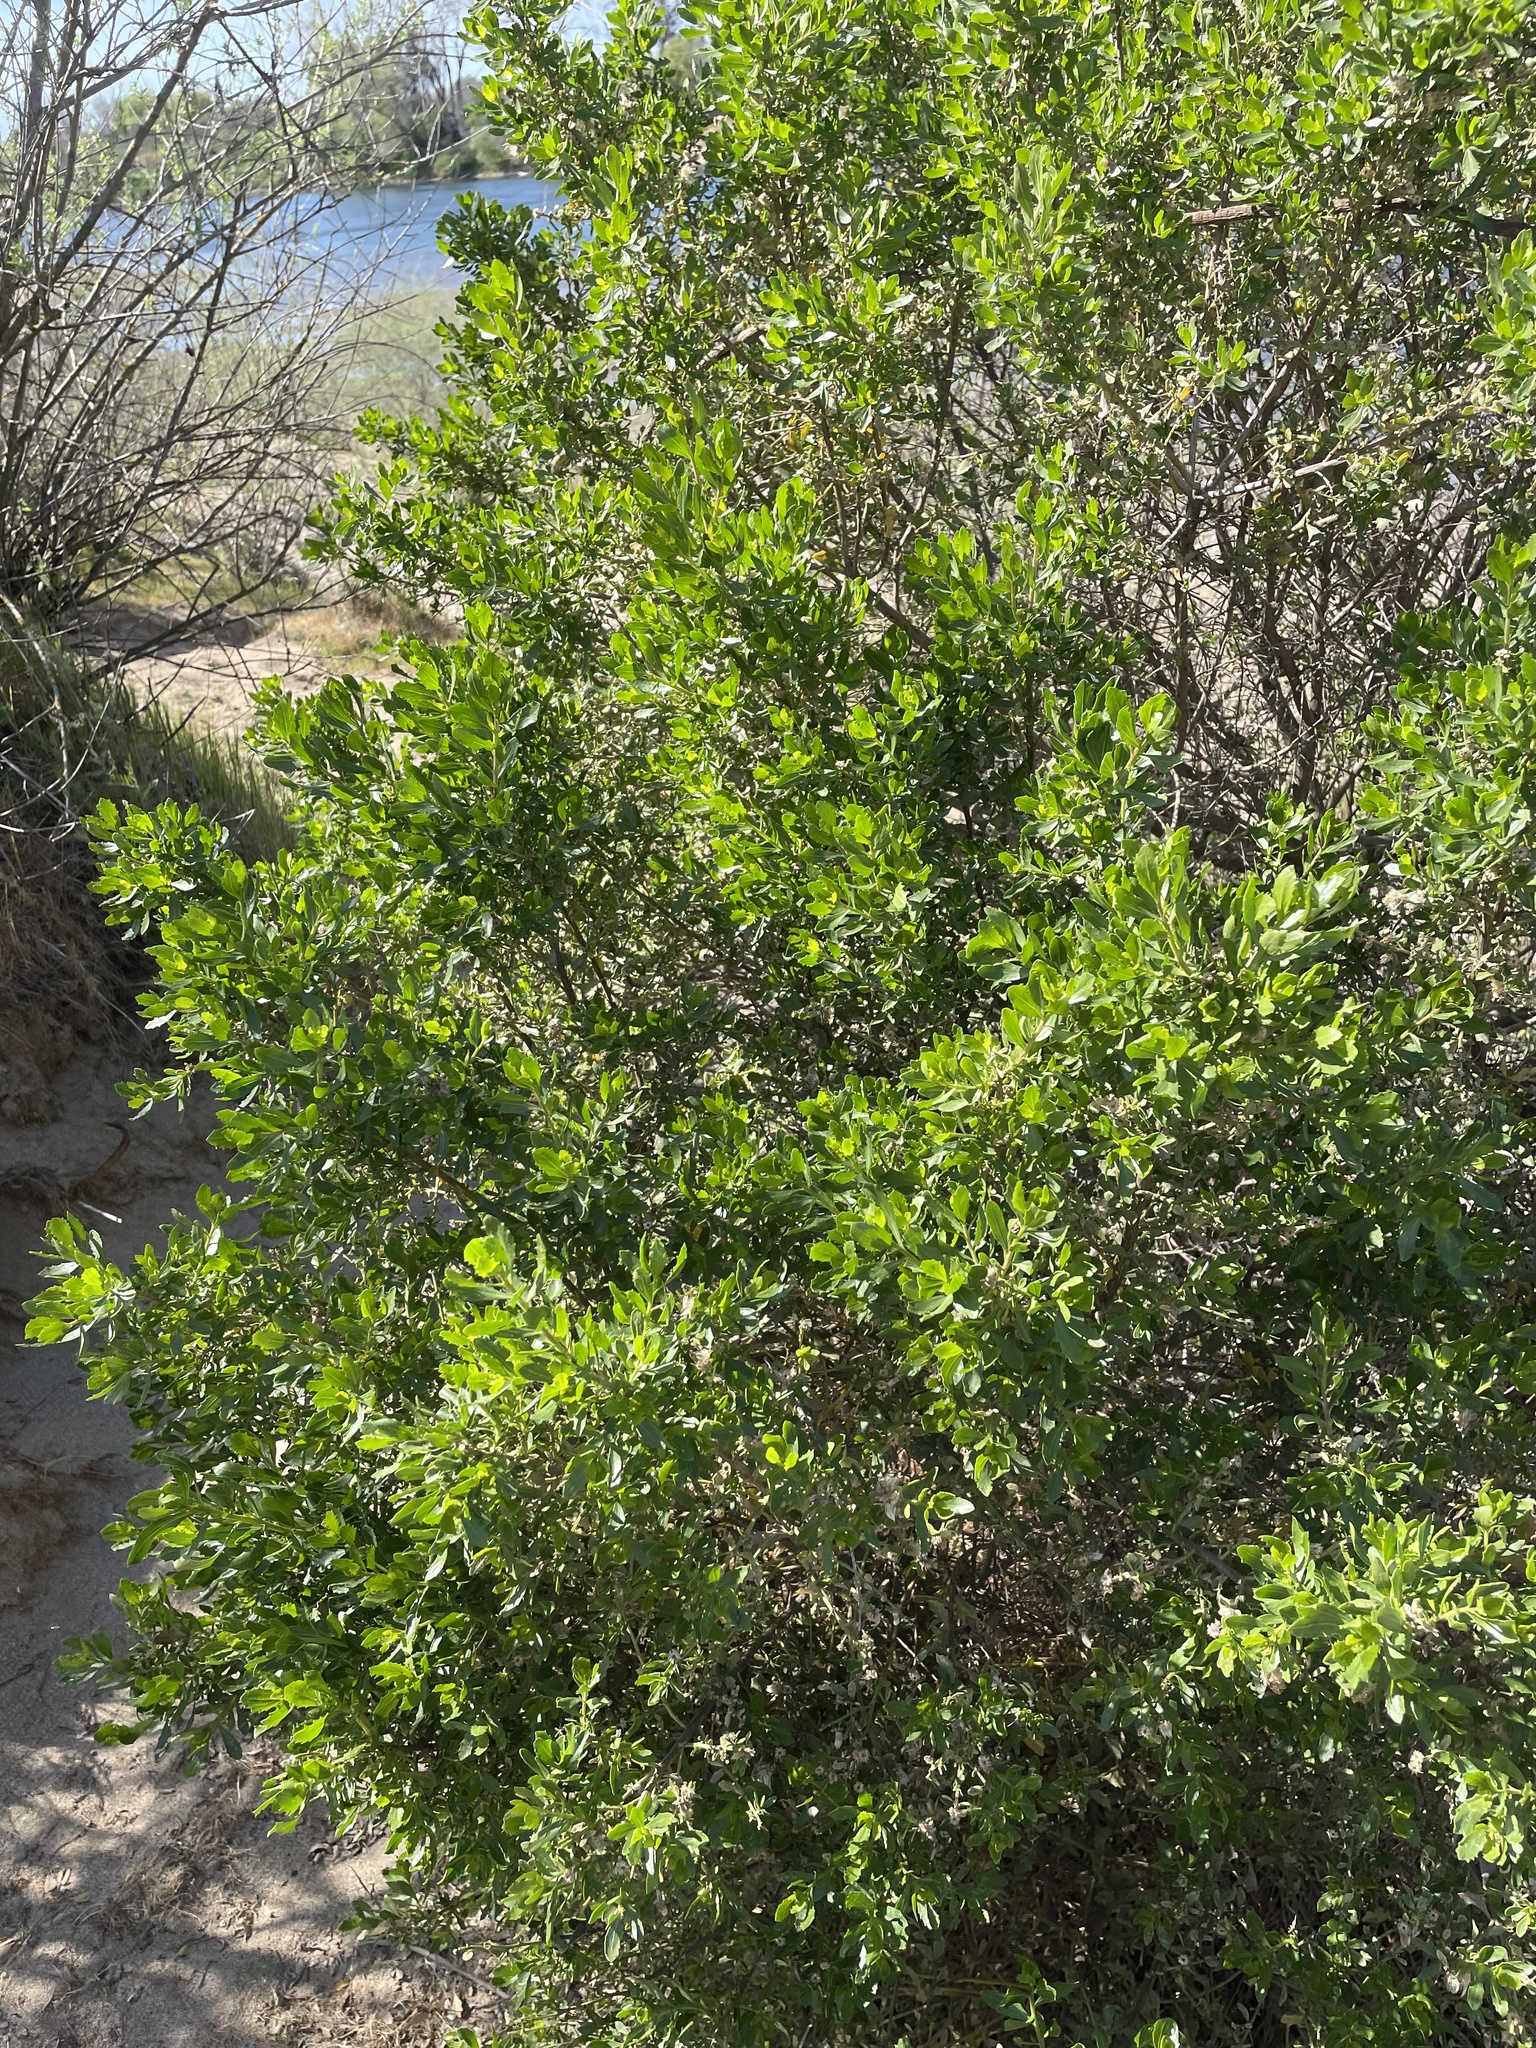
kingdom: Plantae
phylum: Tracheophyta
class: Magnoliopsida
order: Asterales
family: Asteraceae
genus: Baccharis
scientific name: Baccharis pilularis
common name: Coyotebrush
